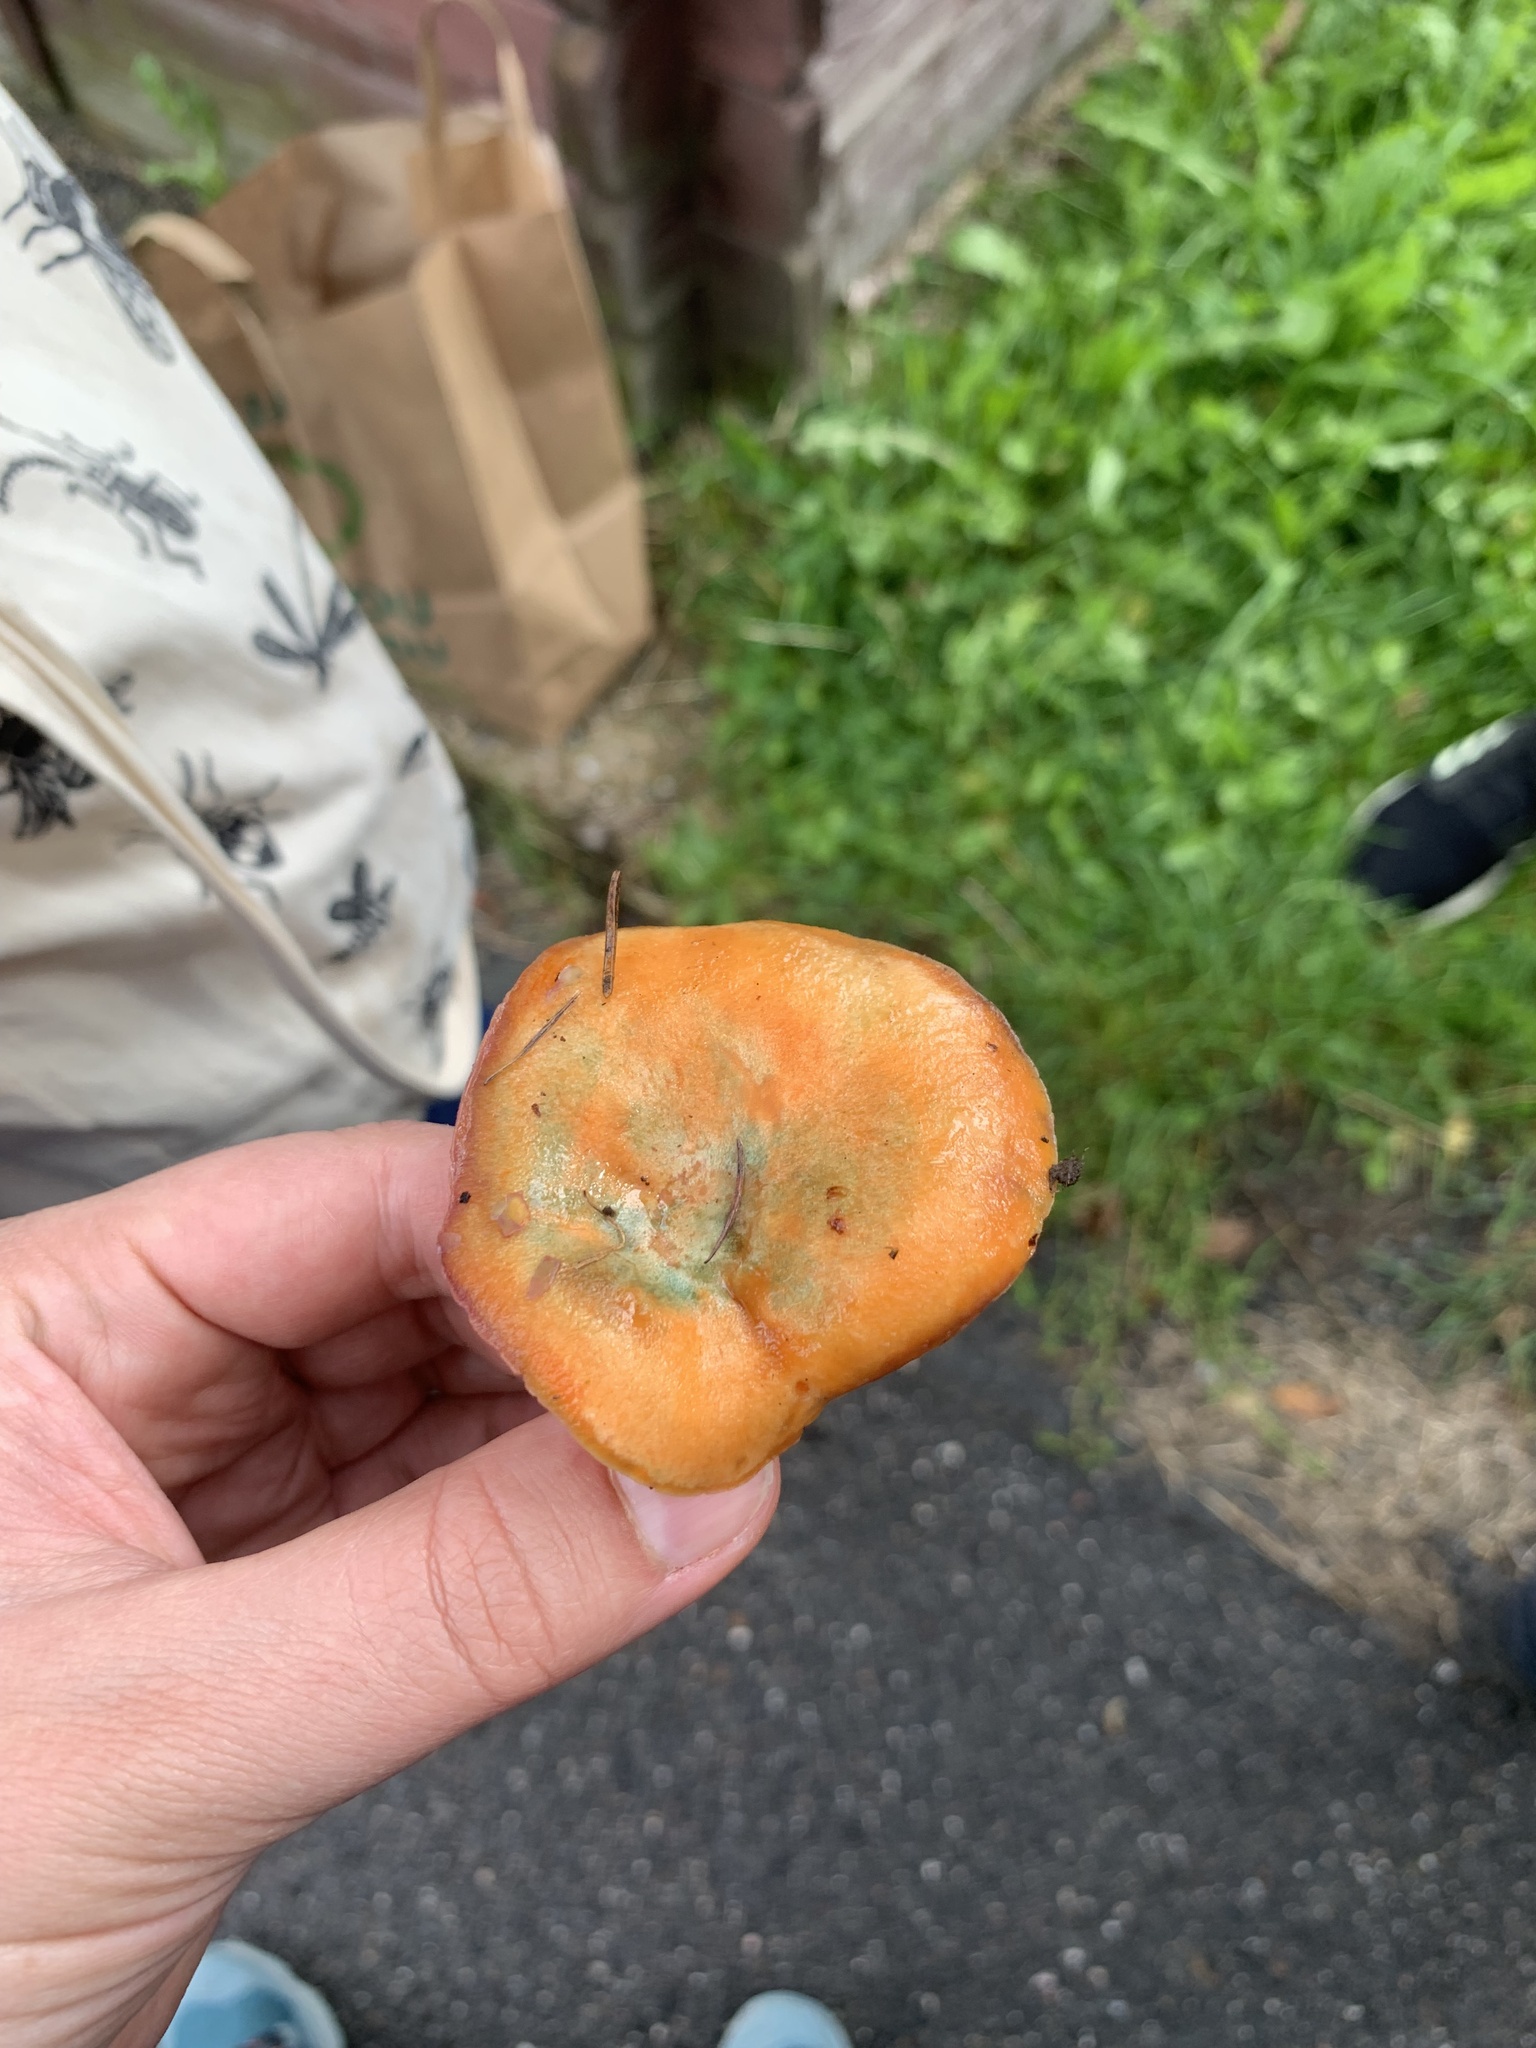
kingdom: Fungi
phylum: Basidiomycota
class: Agaricomycetes
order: Russulales
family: Russulaceae
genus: Lactarius
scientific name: Lactarius deliciosus
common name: Saffron milk-cap
